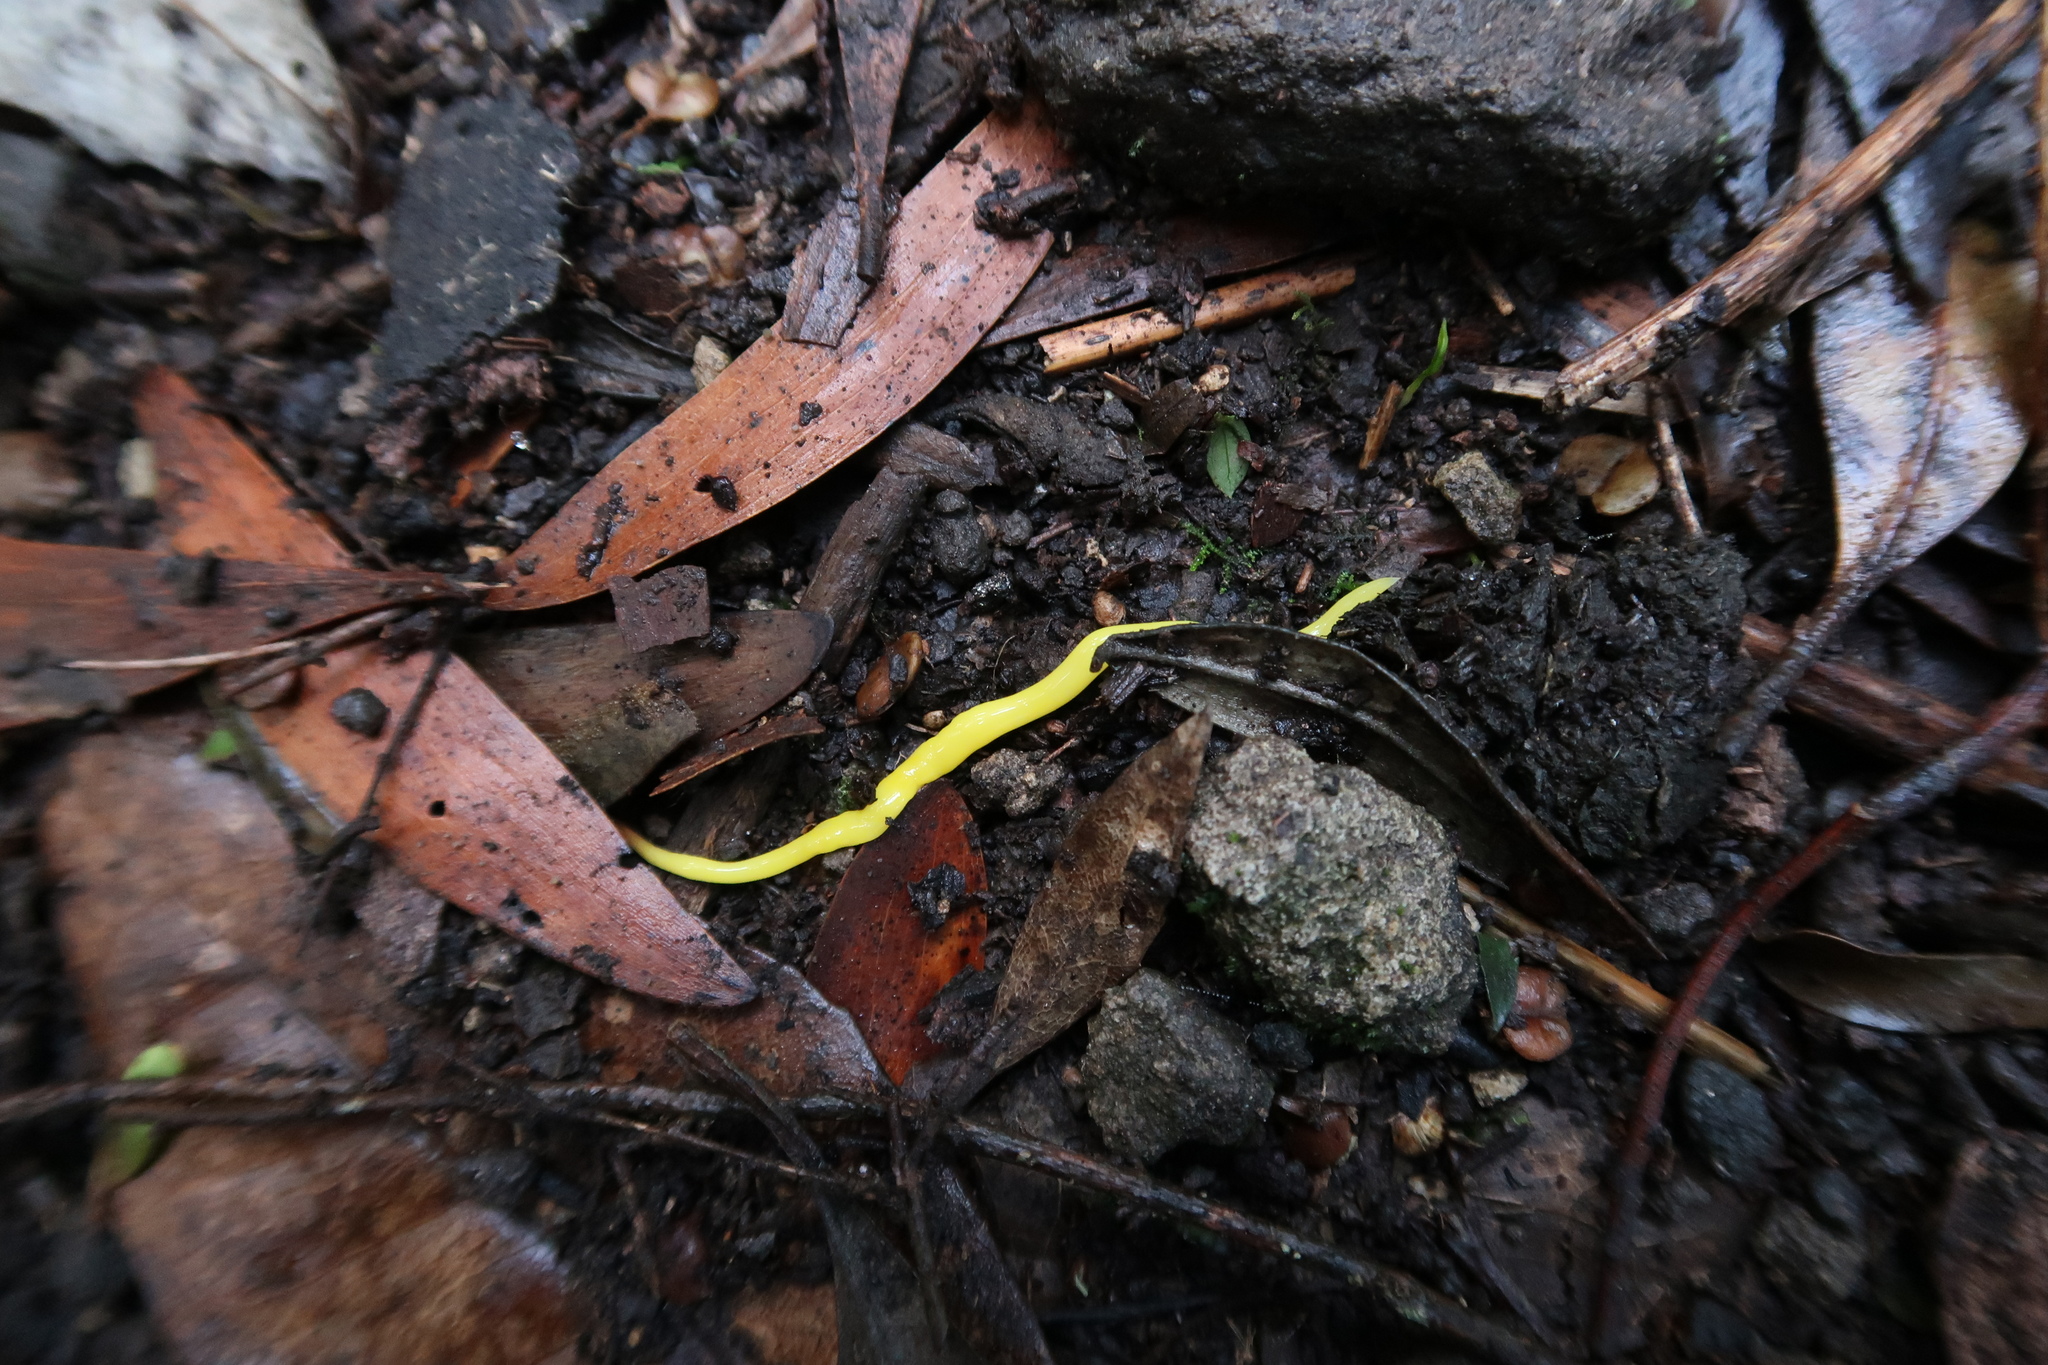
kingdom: Animalia
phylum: Platyhelminthes
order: Tricladida
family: Geoplanidae
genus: Fletchamia
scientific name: Fletchamia sugdeni
